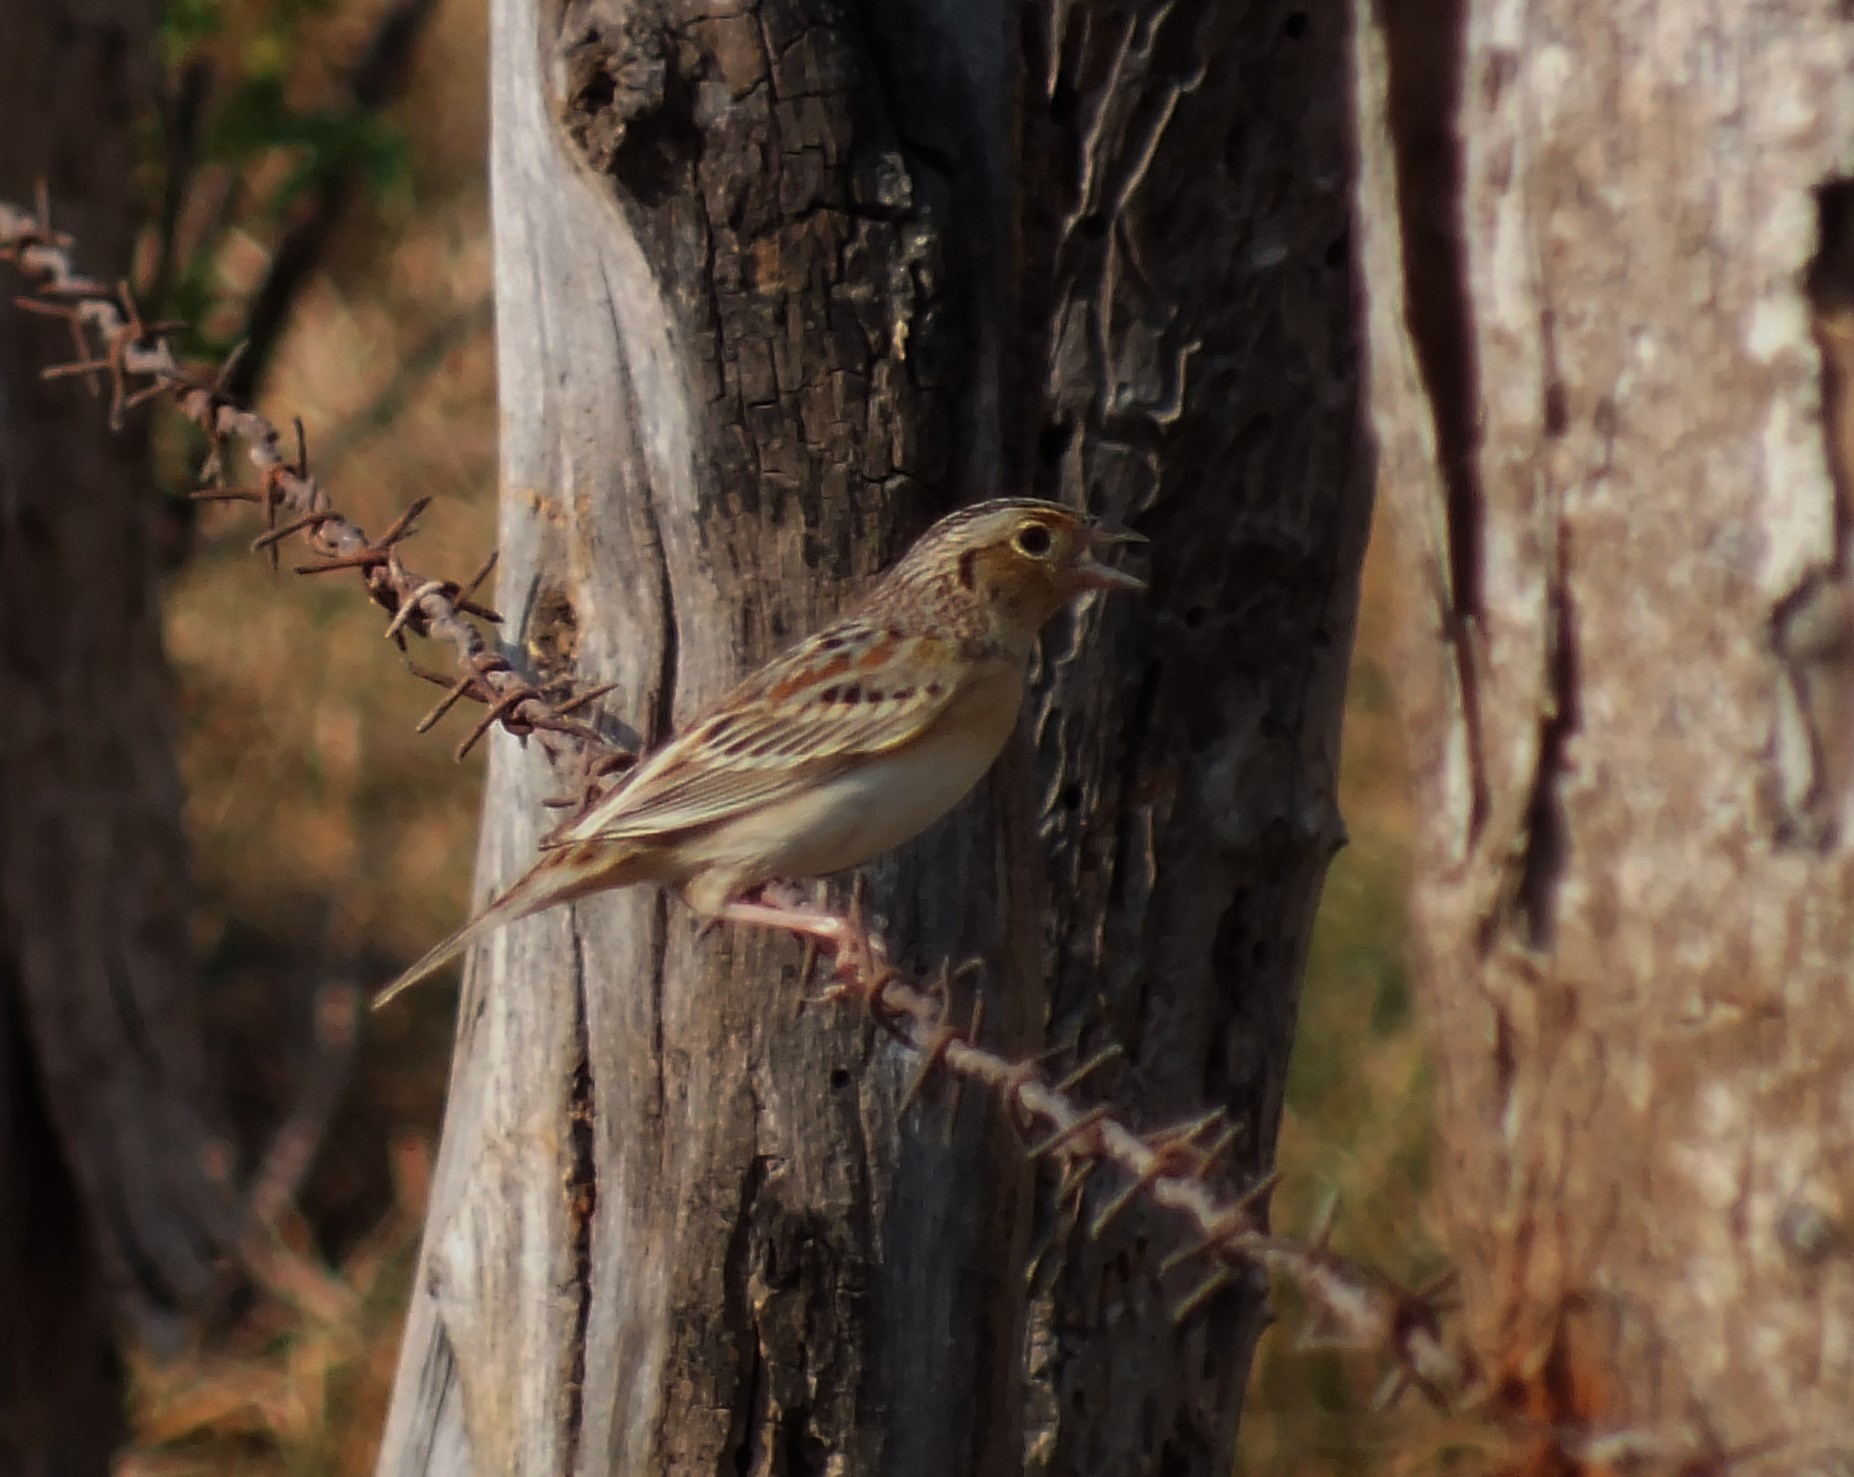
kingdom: Animalia
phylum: Chordata
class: Aves
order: Passeriformes
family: Passerellidae
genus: Ammodramus
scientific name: Ammodramus savannarum
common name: Grasshopper sparrow
